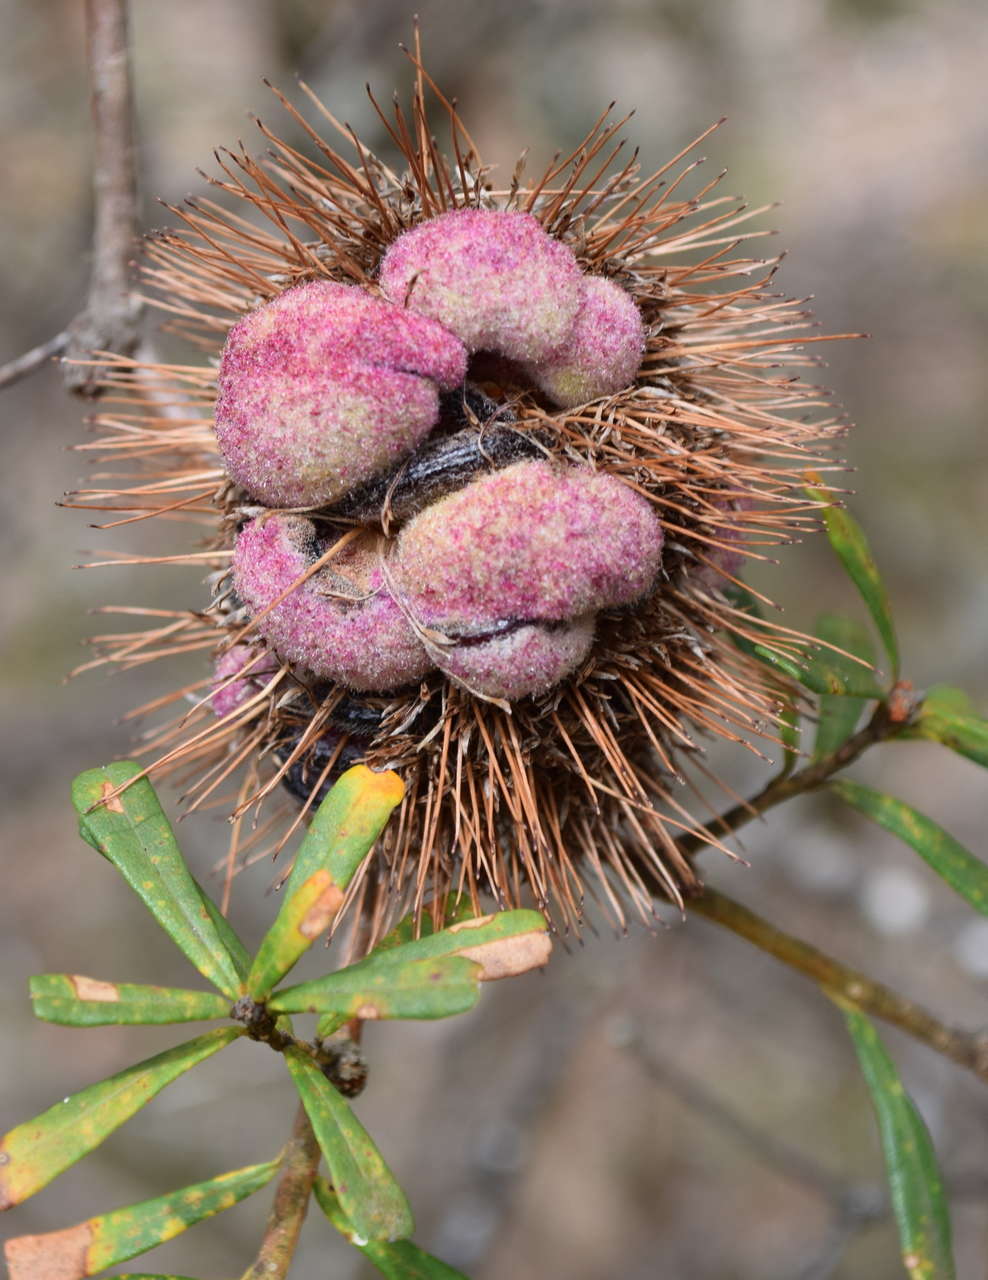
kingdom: Plantae
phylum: Tracheophyta
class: Magnoliopsida
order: Proteales
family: Proteaceae
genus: Banksia
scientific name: Banksia marginata
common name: Silver banksia
